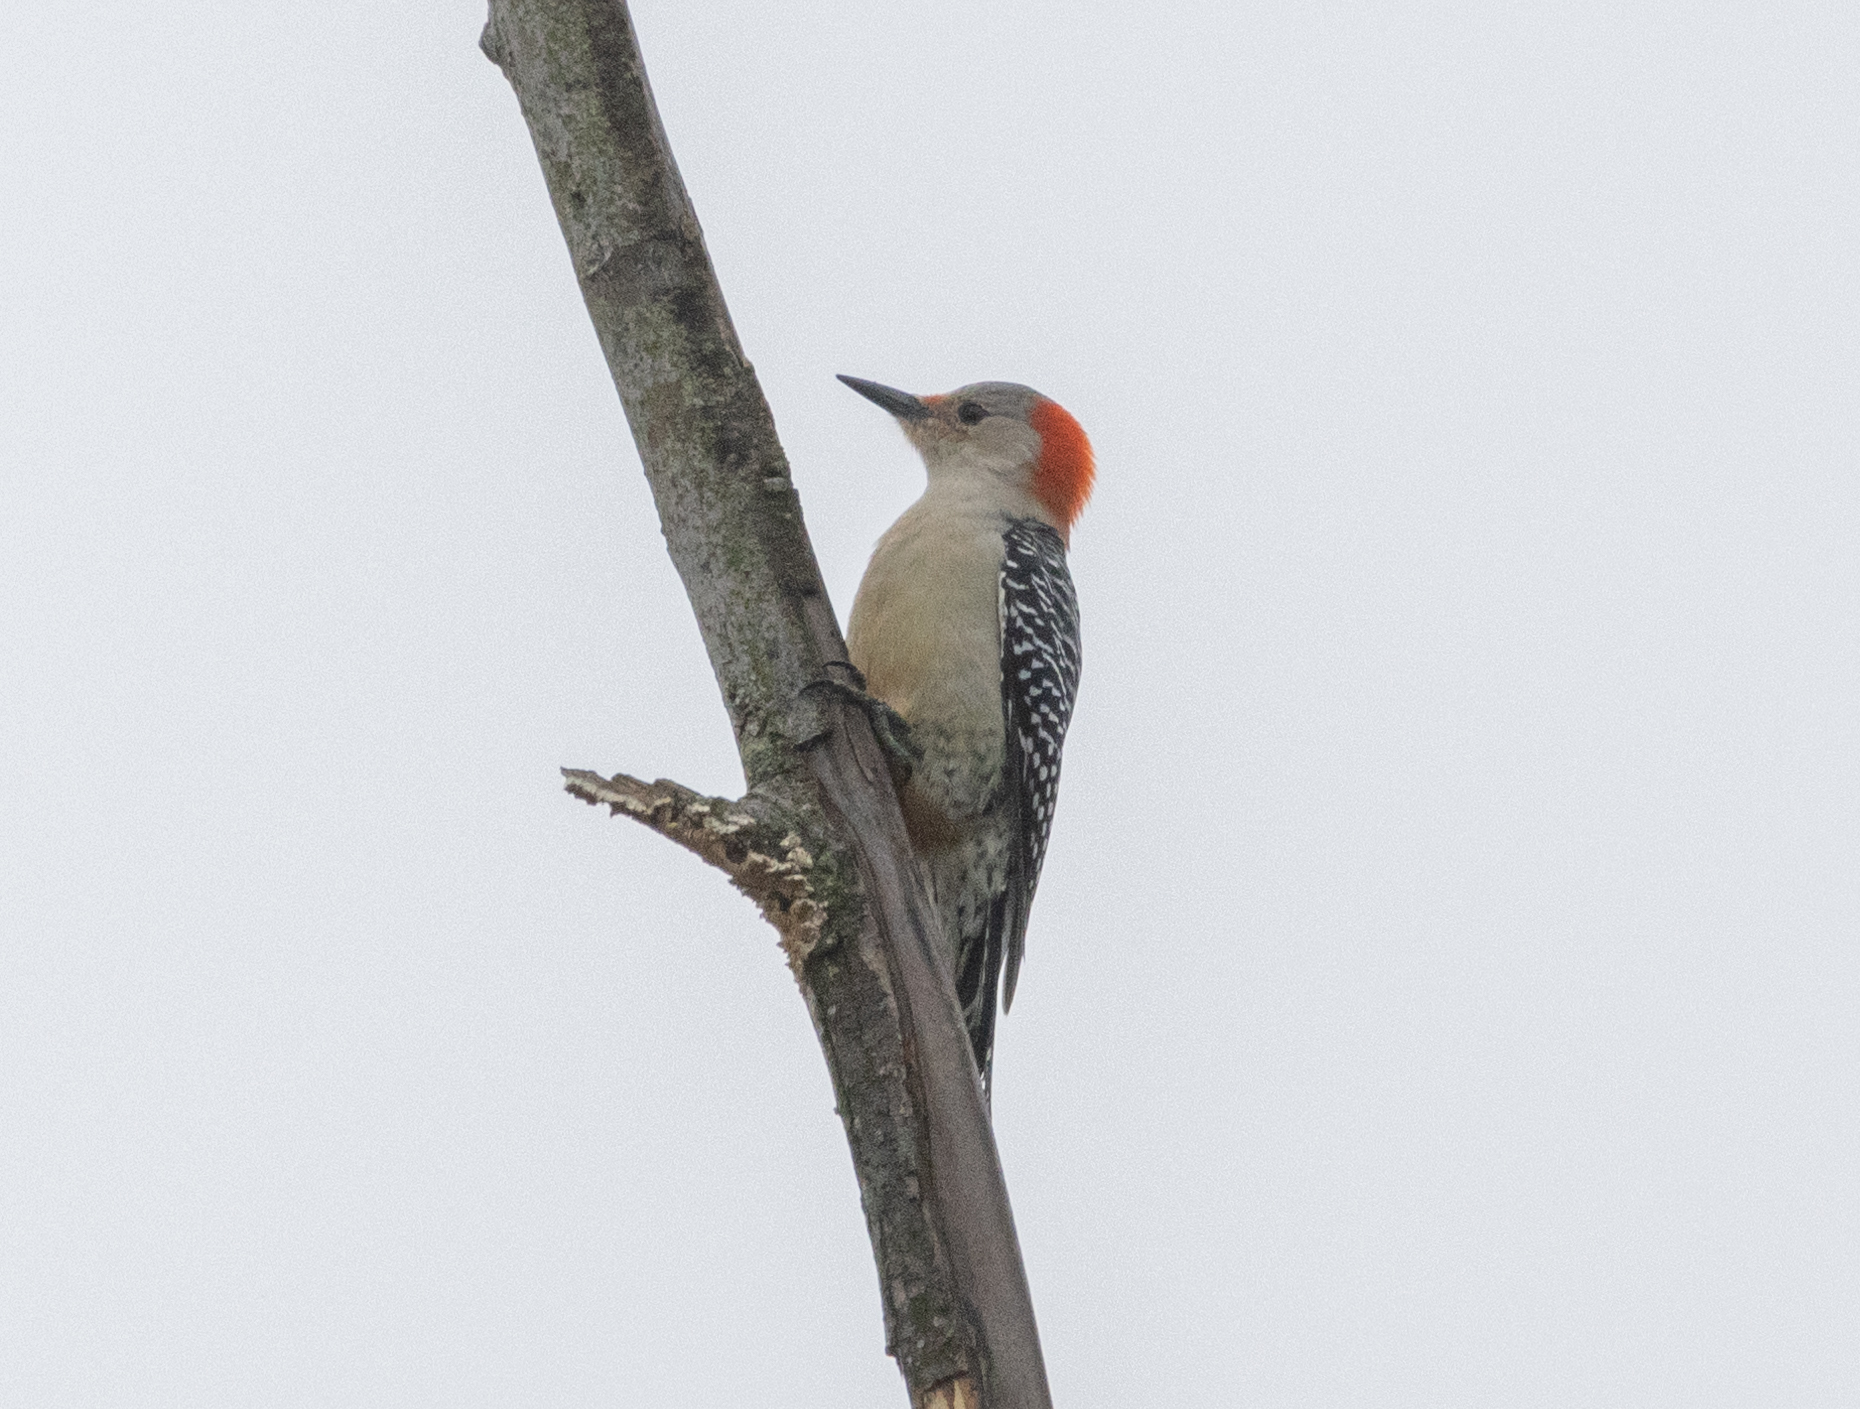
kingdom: Animalia
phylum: Chordata
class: Aves
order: Piciformes
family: Picidae
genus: Melanerpes
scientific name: Melanerpes carolinus
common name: Red-bellied woodpecker
